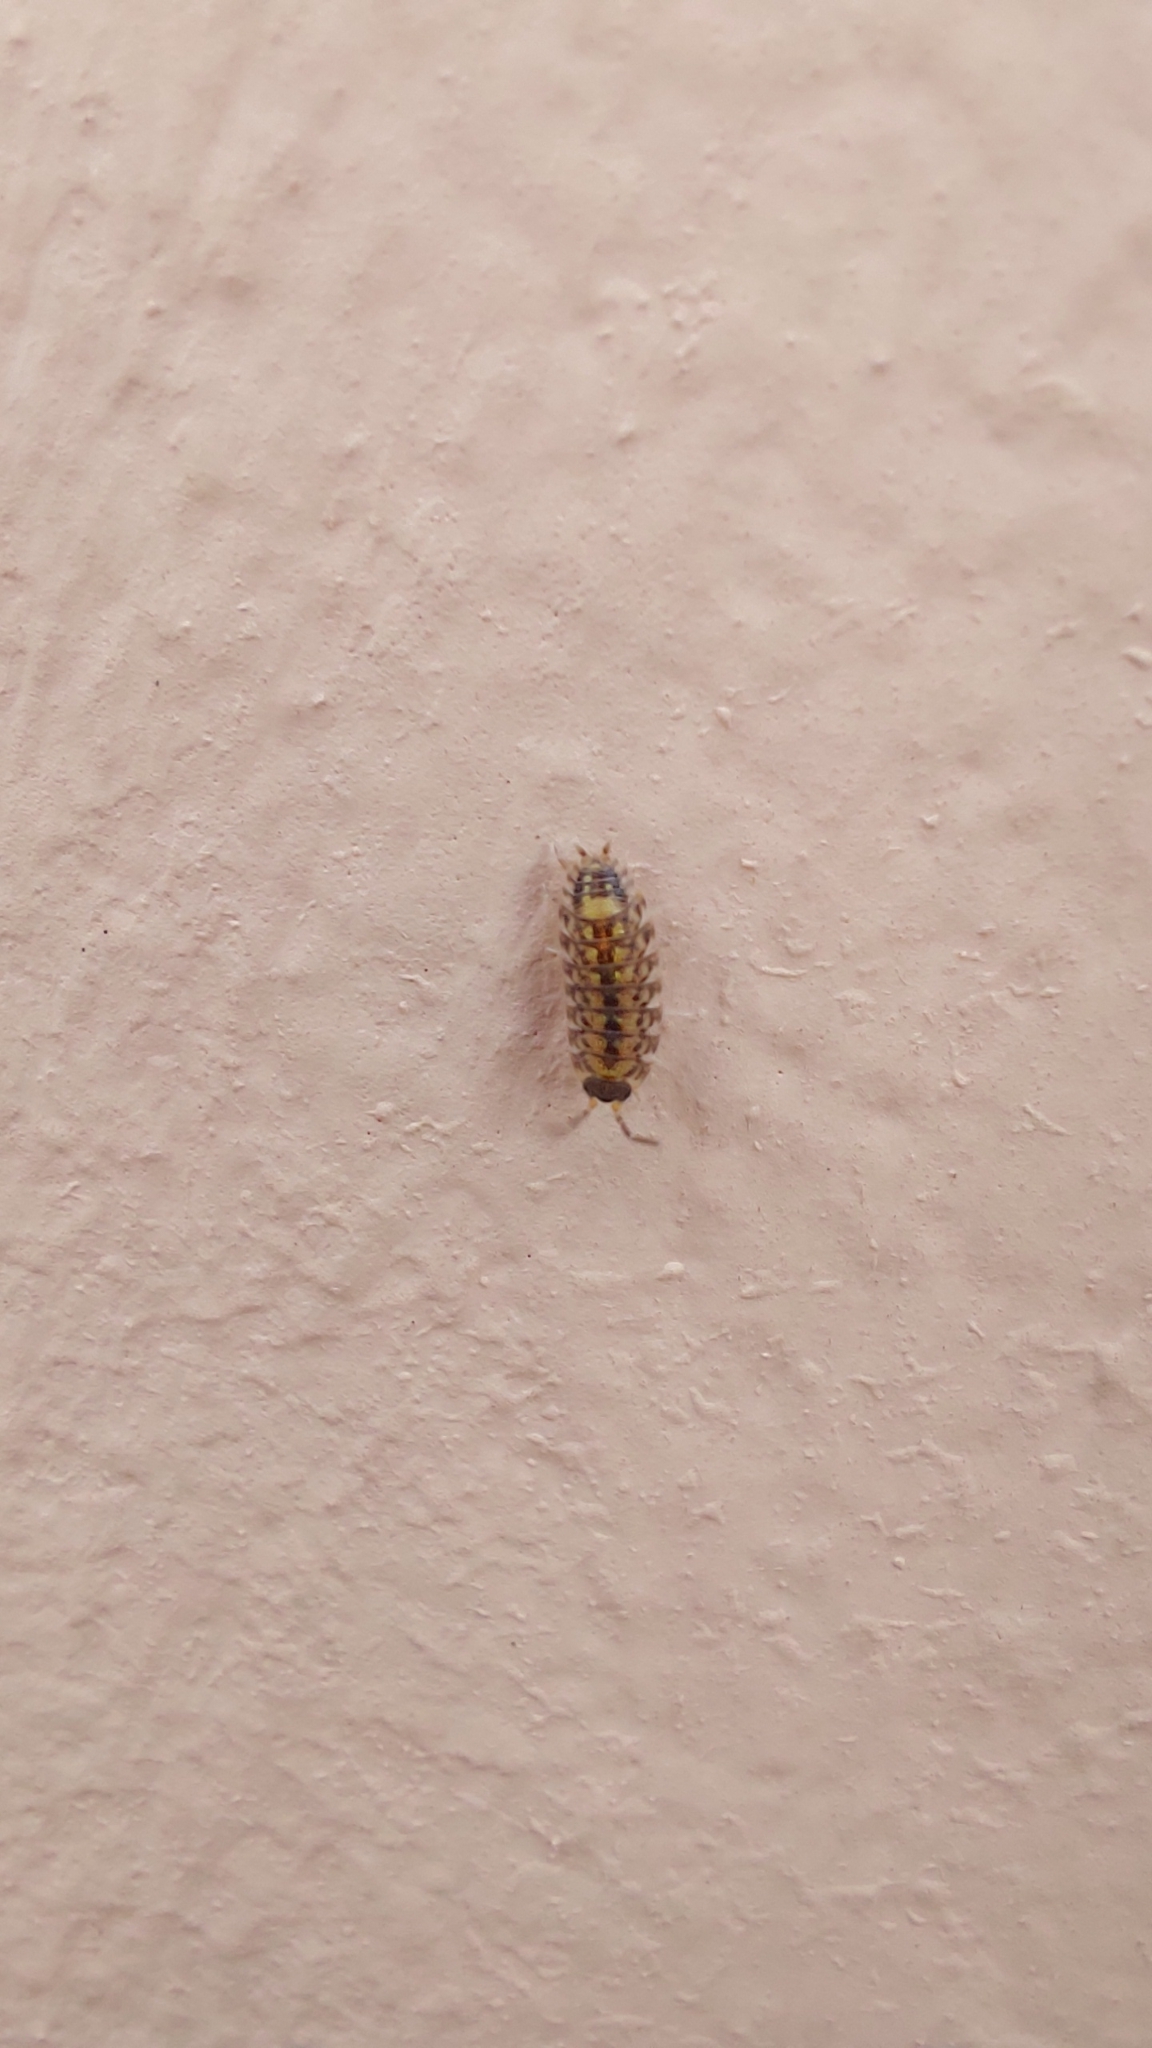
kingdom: Animalia
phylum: Arthropoda
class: Malacostraca
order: Isopoda
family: Porcellionidae
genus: Porcellio
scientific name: Porcellio spinicornis
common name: Painted woodlouse
